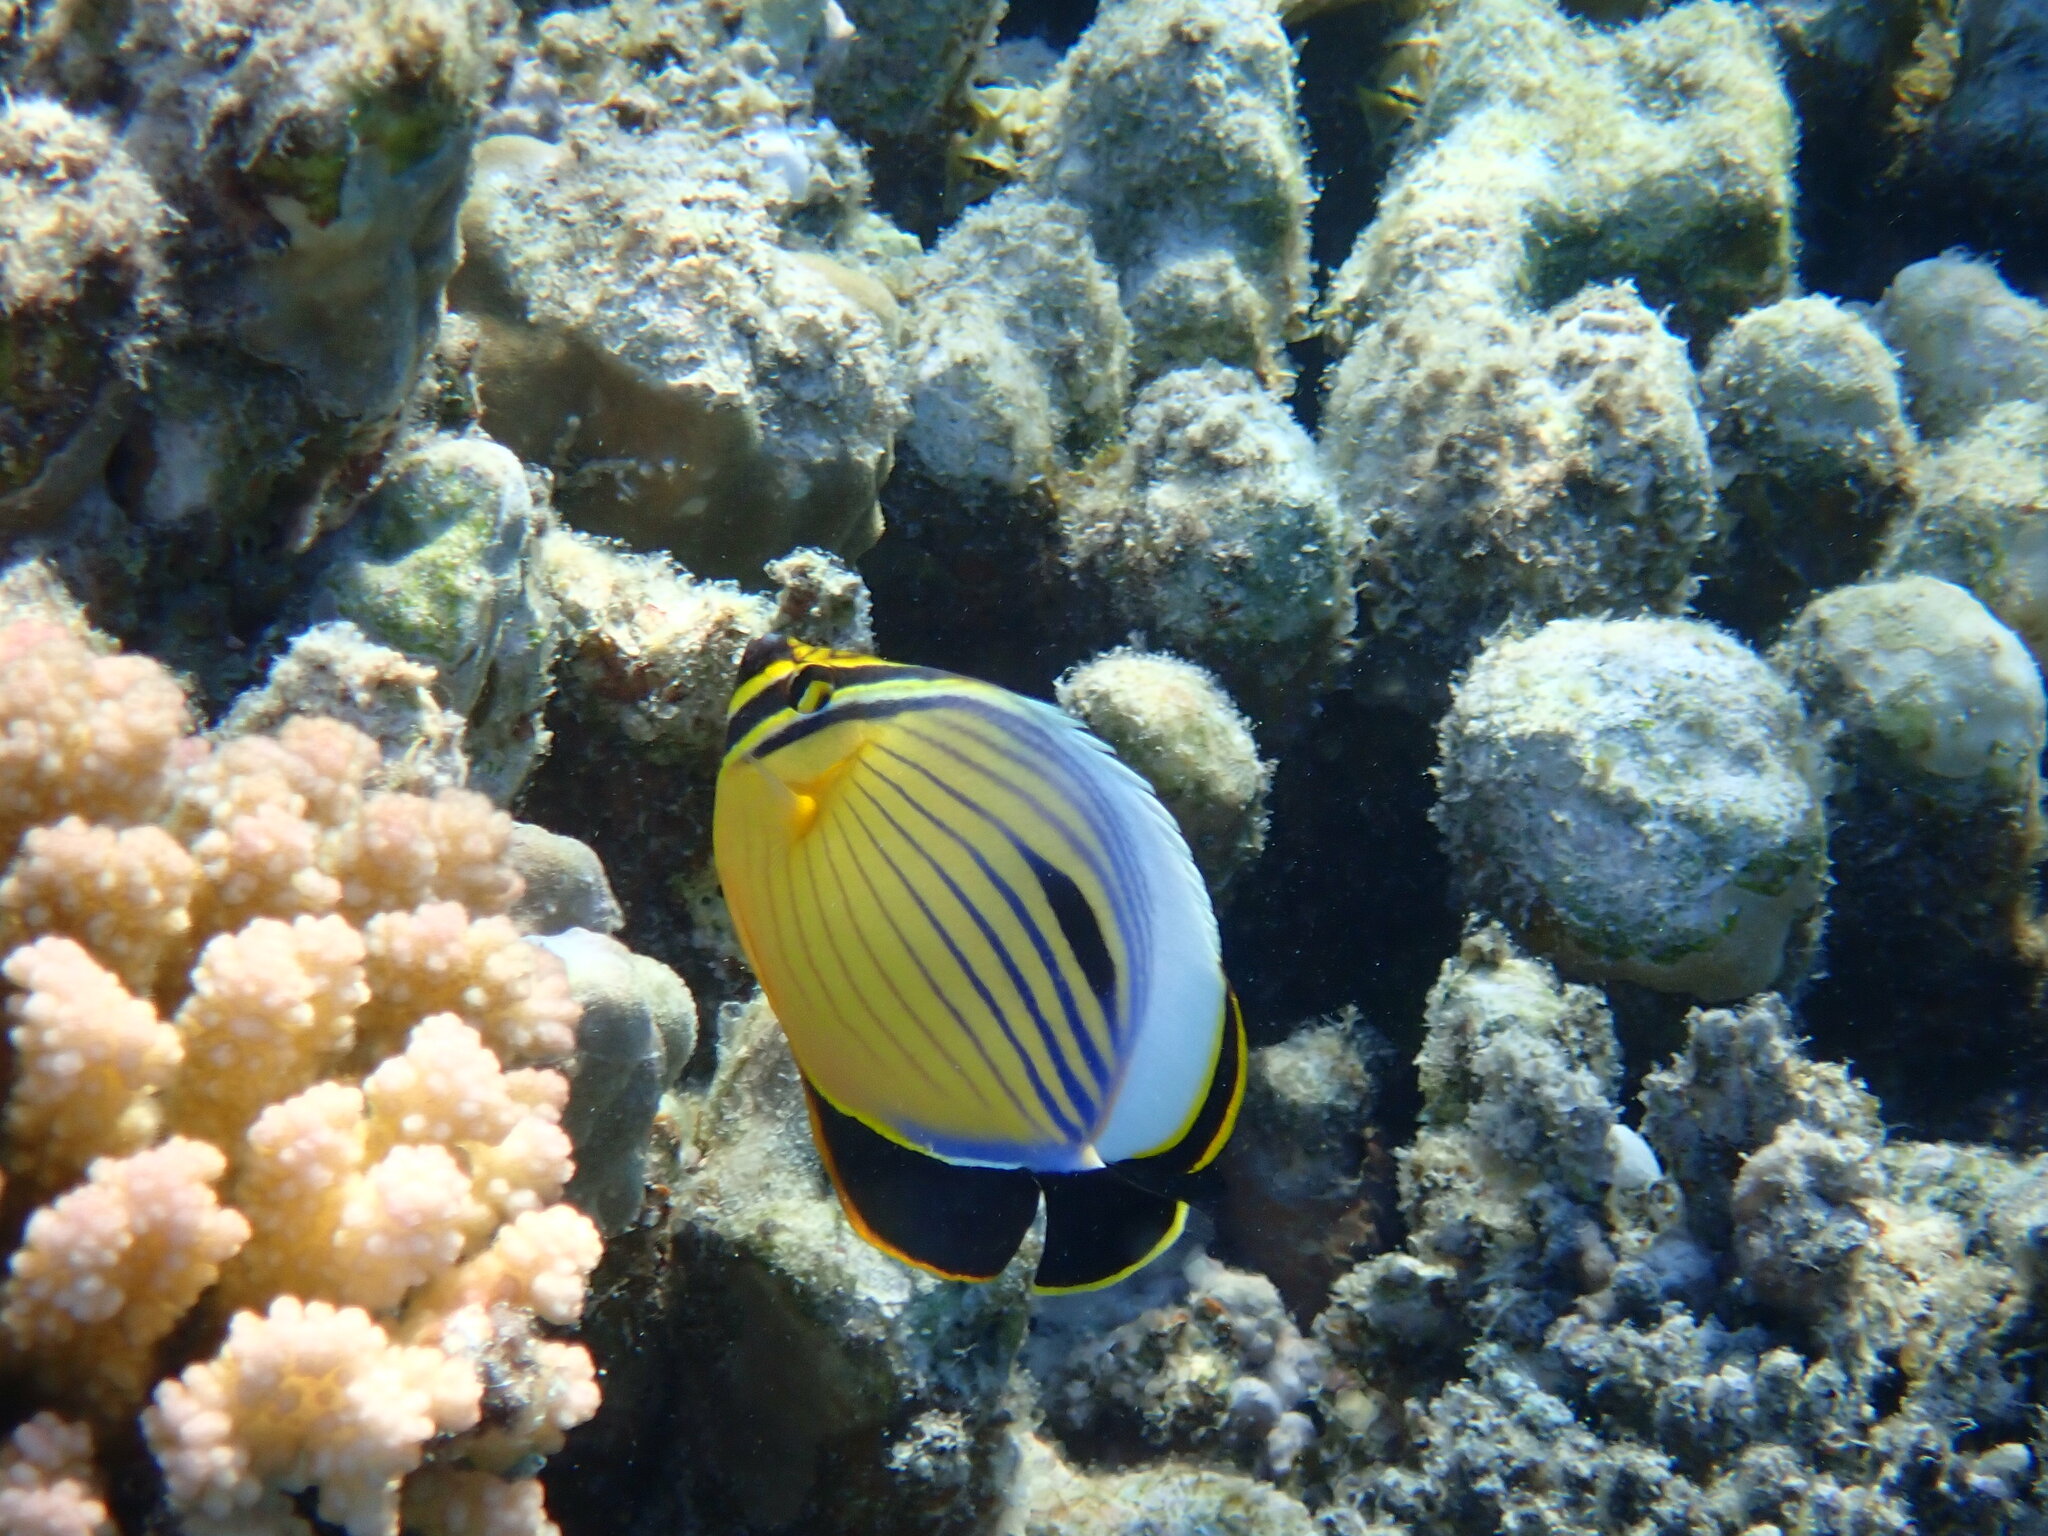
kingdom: Animalia
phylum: Chordata
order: Perciformes
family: Chaetodontidae
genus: Chaetodon
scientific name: Chaetodon austriacus
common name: Exquisite butterflyfish
